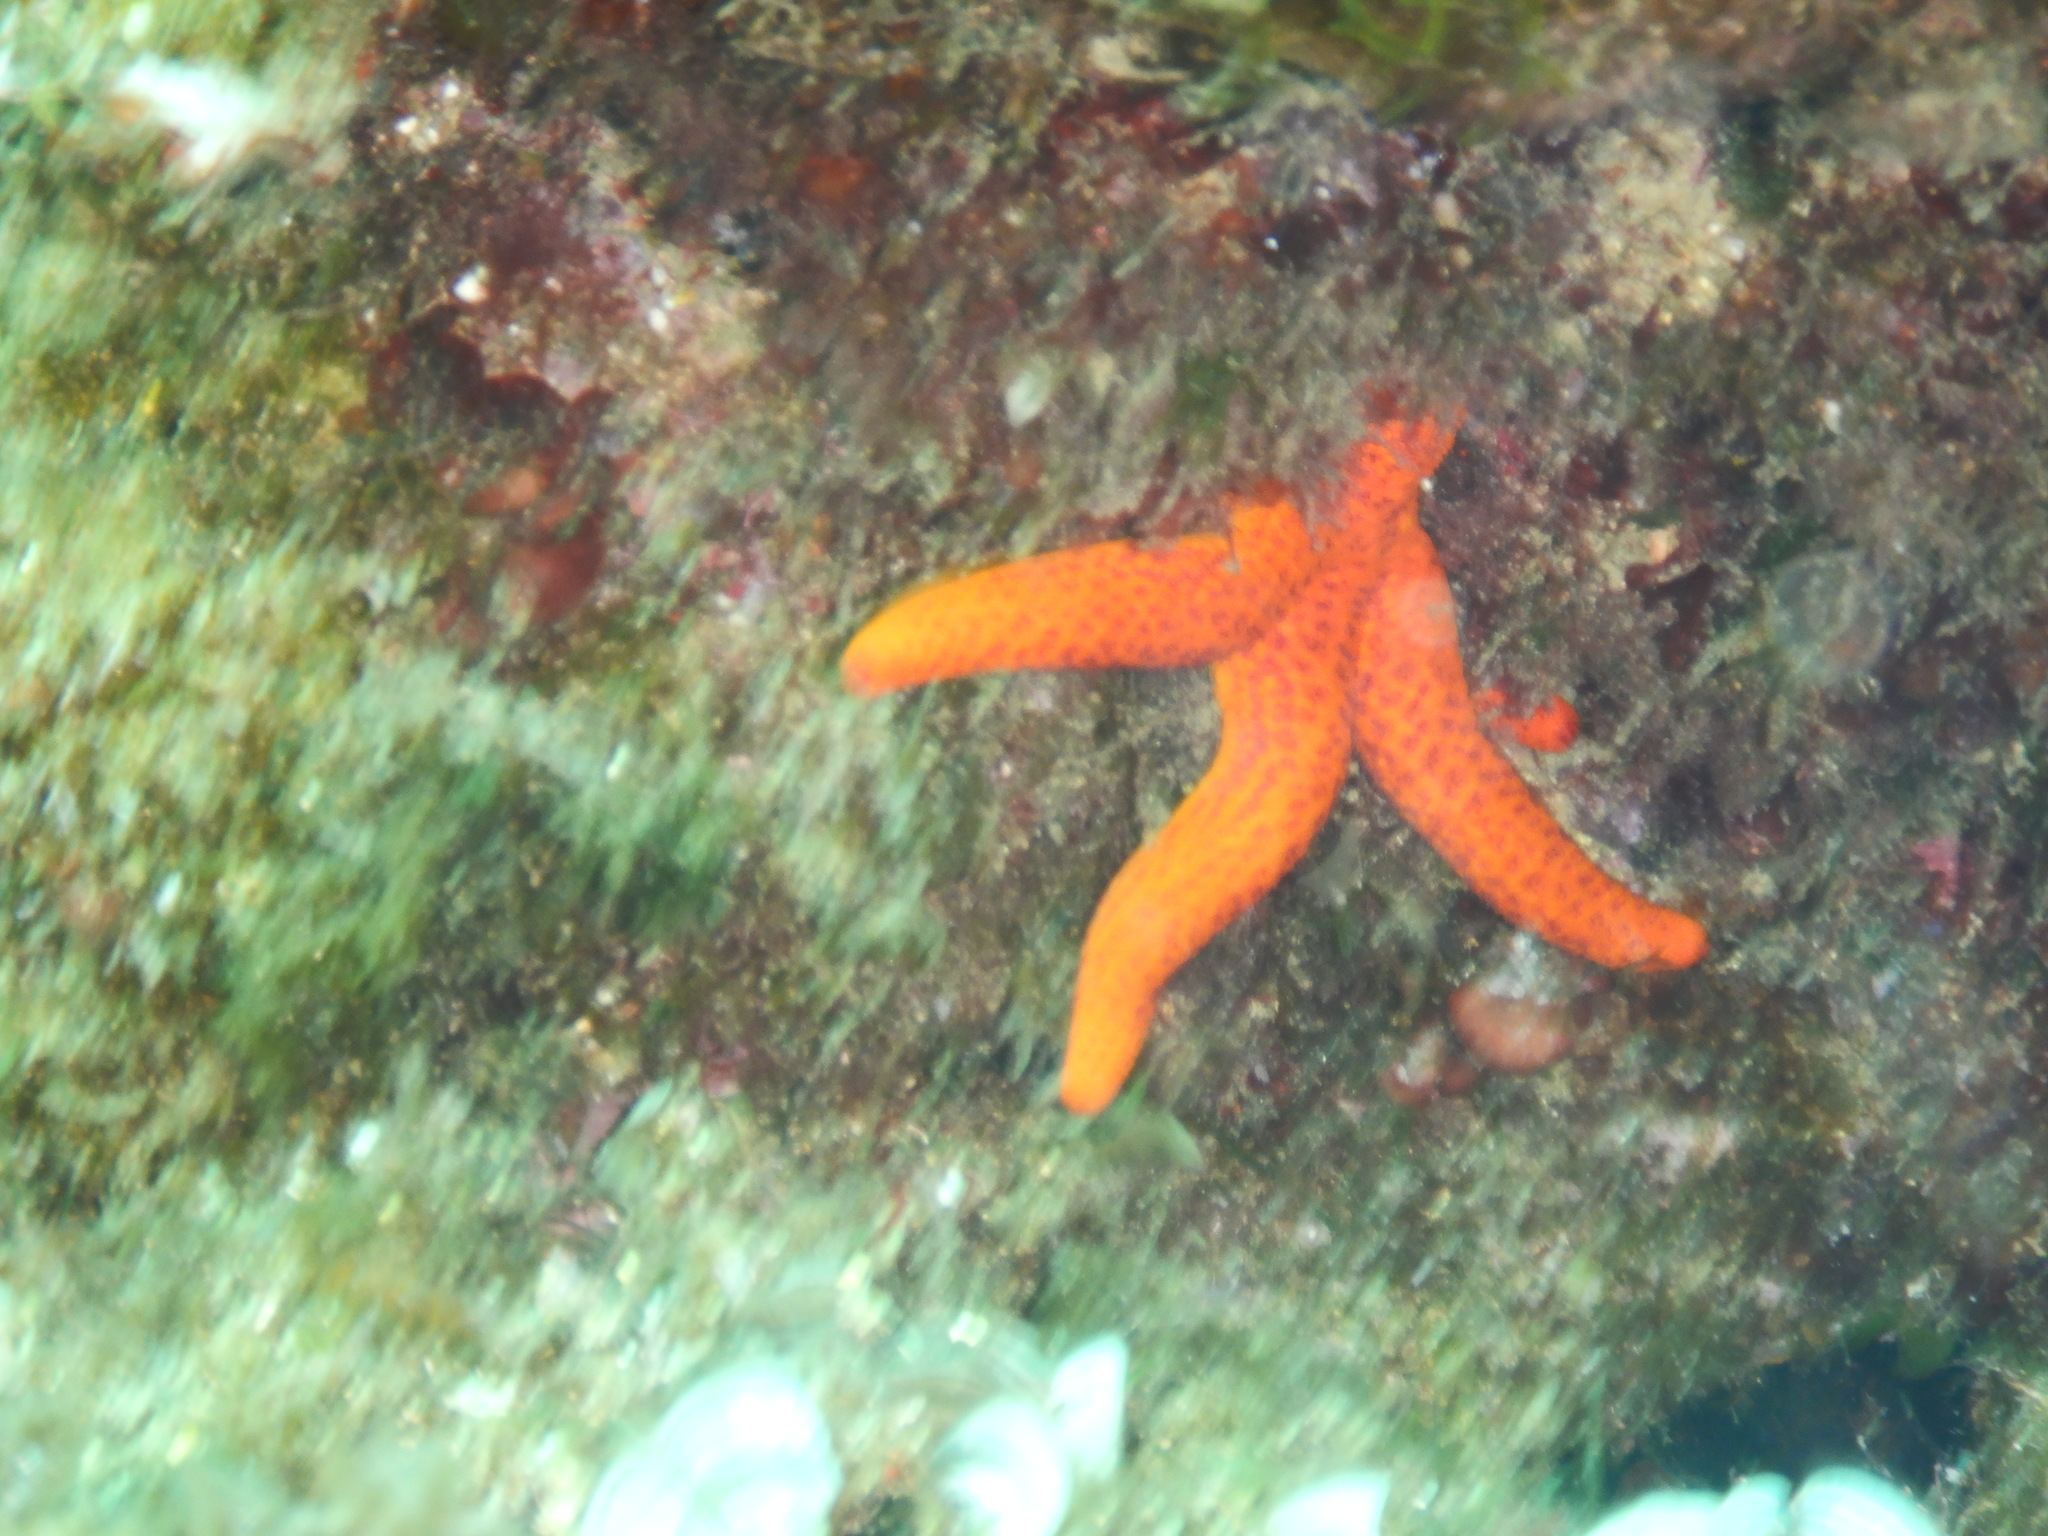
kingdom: Animalia
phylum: Echinodermata
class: Asteroidea
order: Spinulosida
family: Echinasteridae
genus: Echinaster
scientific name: Echinaster sepositus
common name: Red starfish
